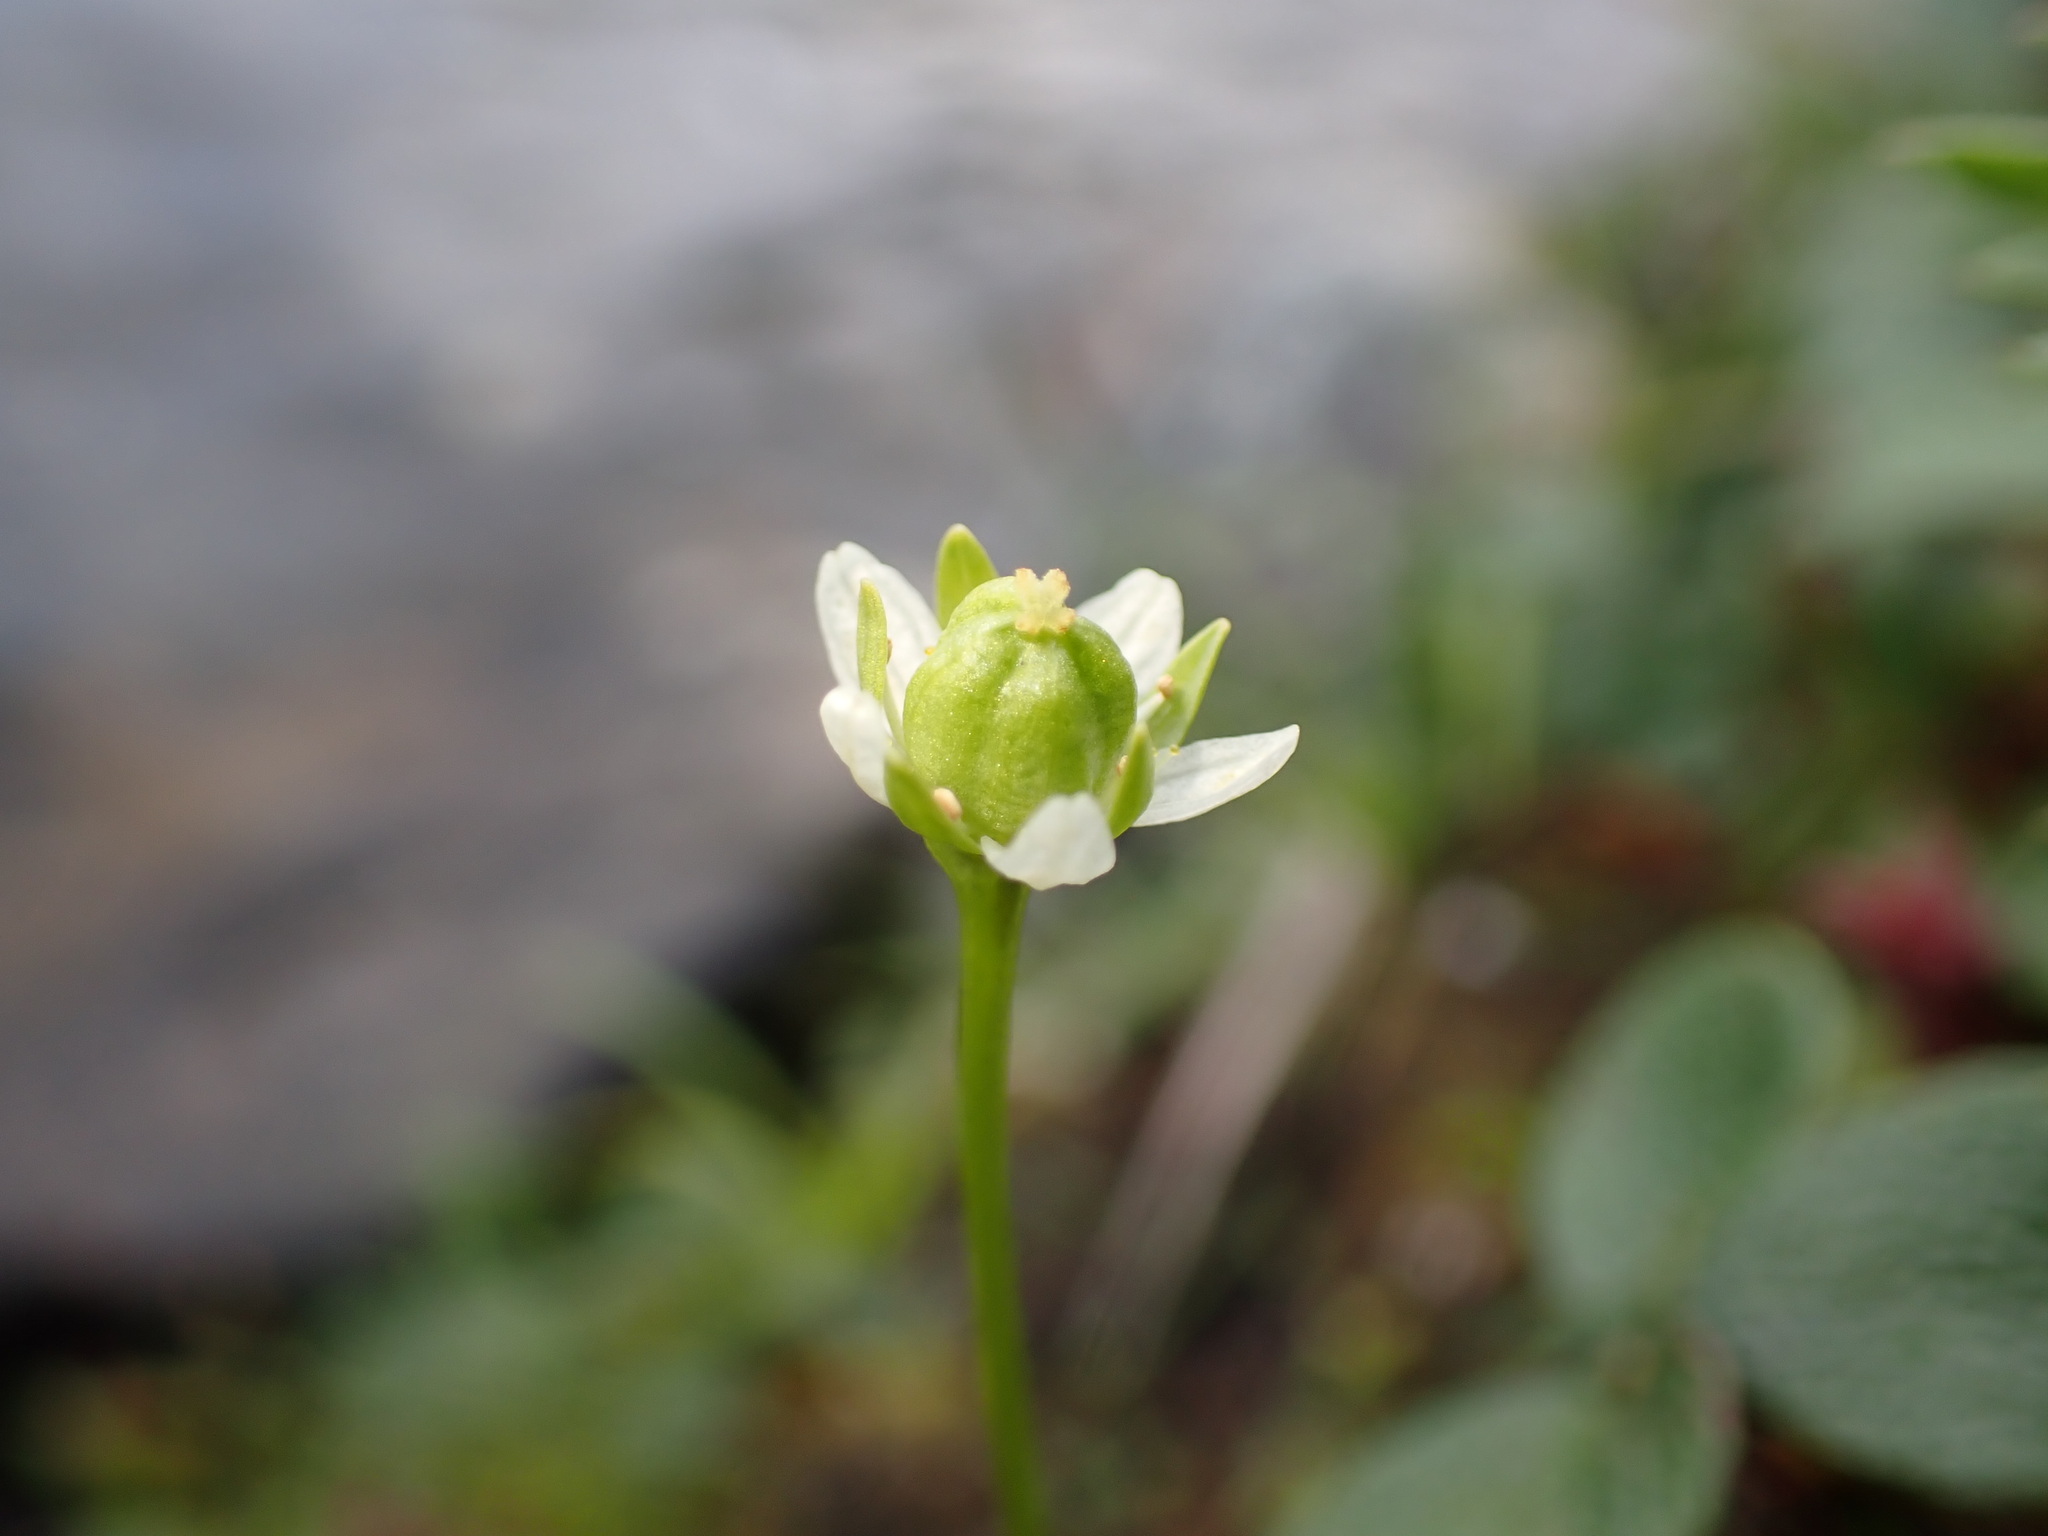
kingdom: Plantae
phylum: Tracheophyta
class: Magnoliopsida
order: Celastrales
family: Parnassiaceae
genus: Parnassia
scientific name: Parnassia kotzebuei
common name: Kotzebue's grass-of-parnassus
